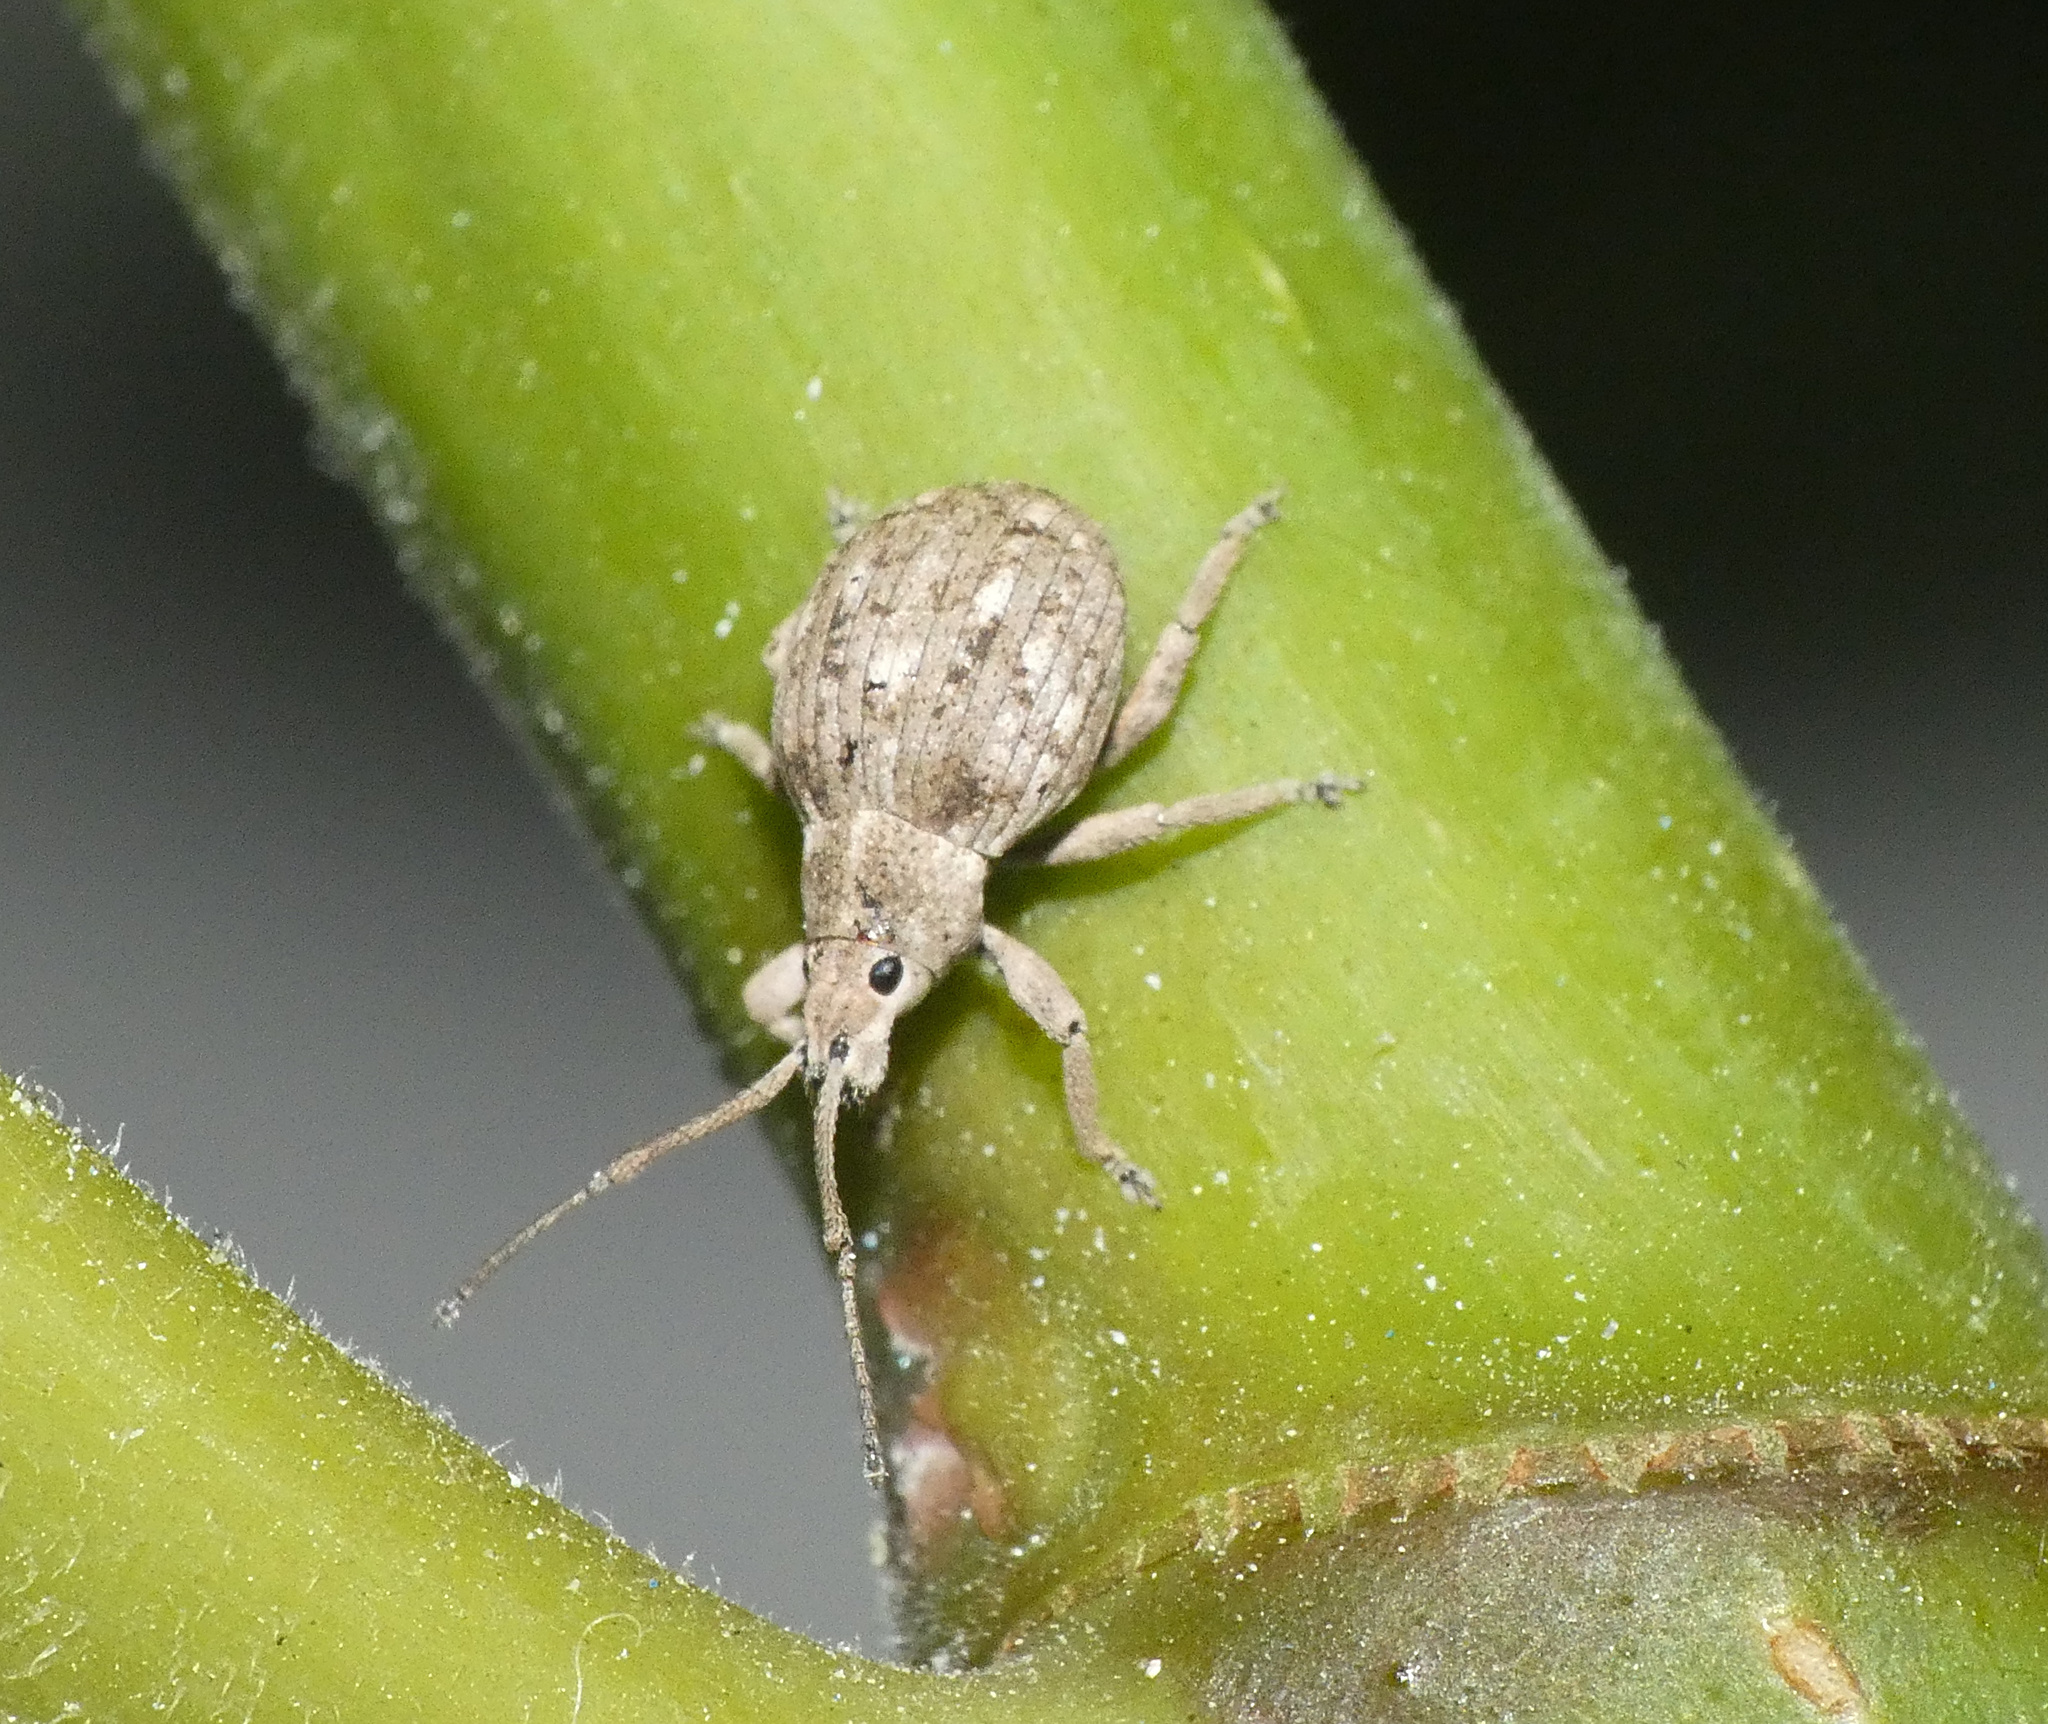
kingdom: Animalia
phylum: Arthropoda
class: Insecta
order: Coleoptera
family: Curculionidae
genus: Ellimenistes
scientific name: Ellimenistes laesicollis
